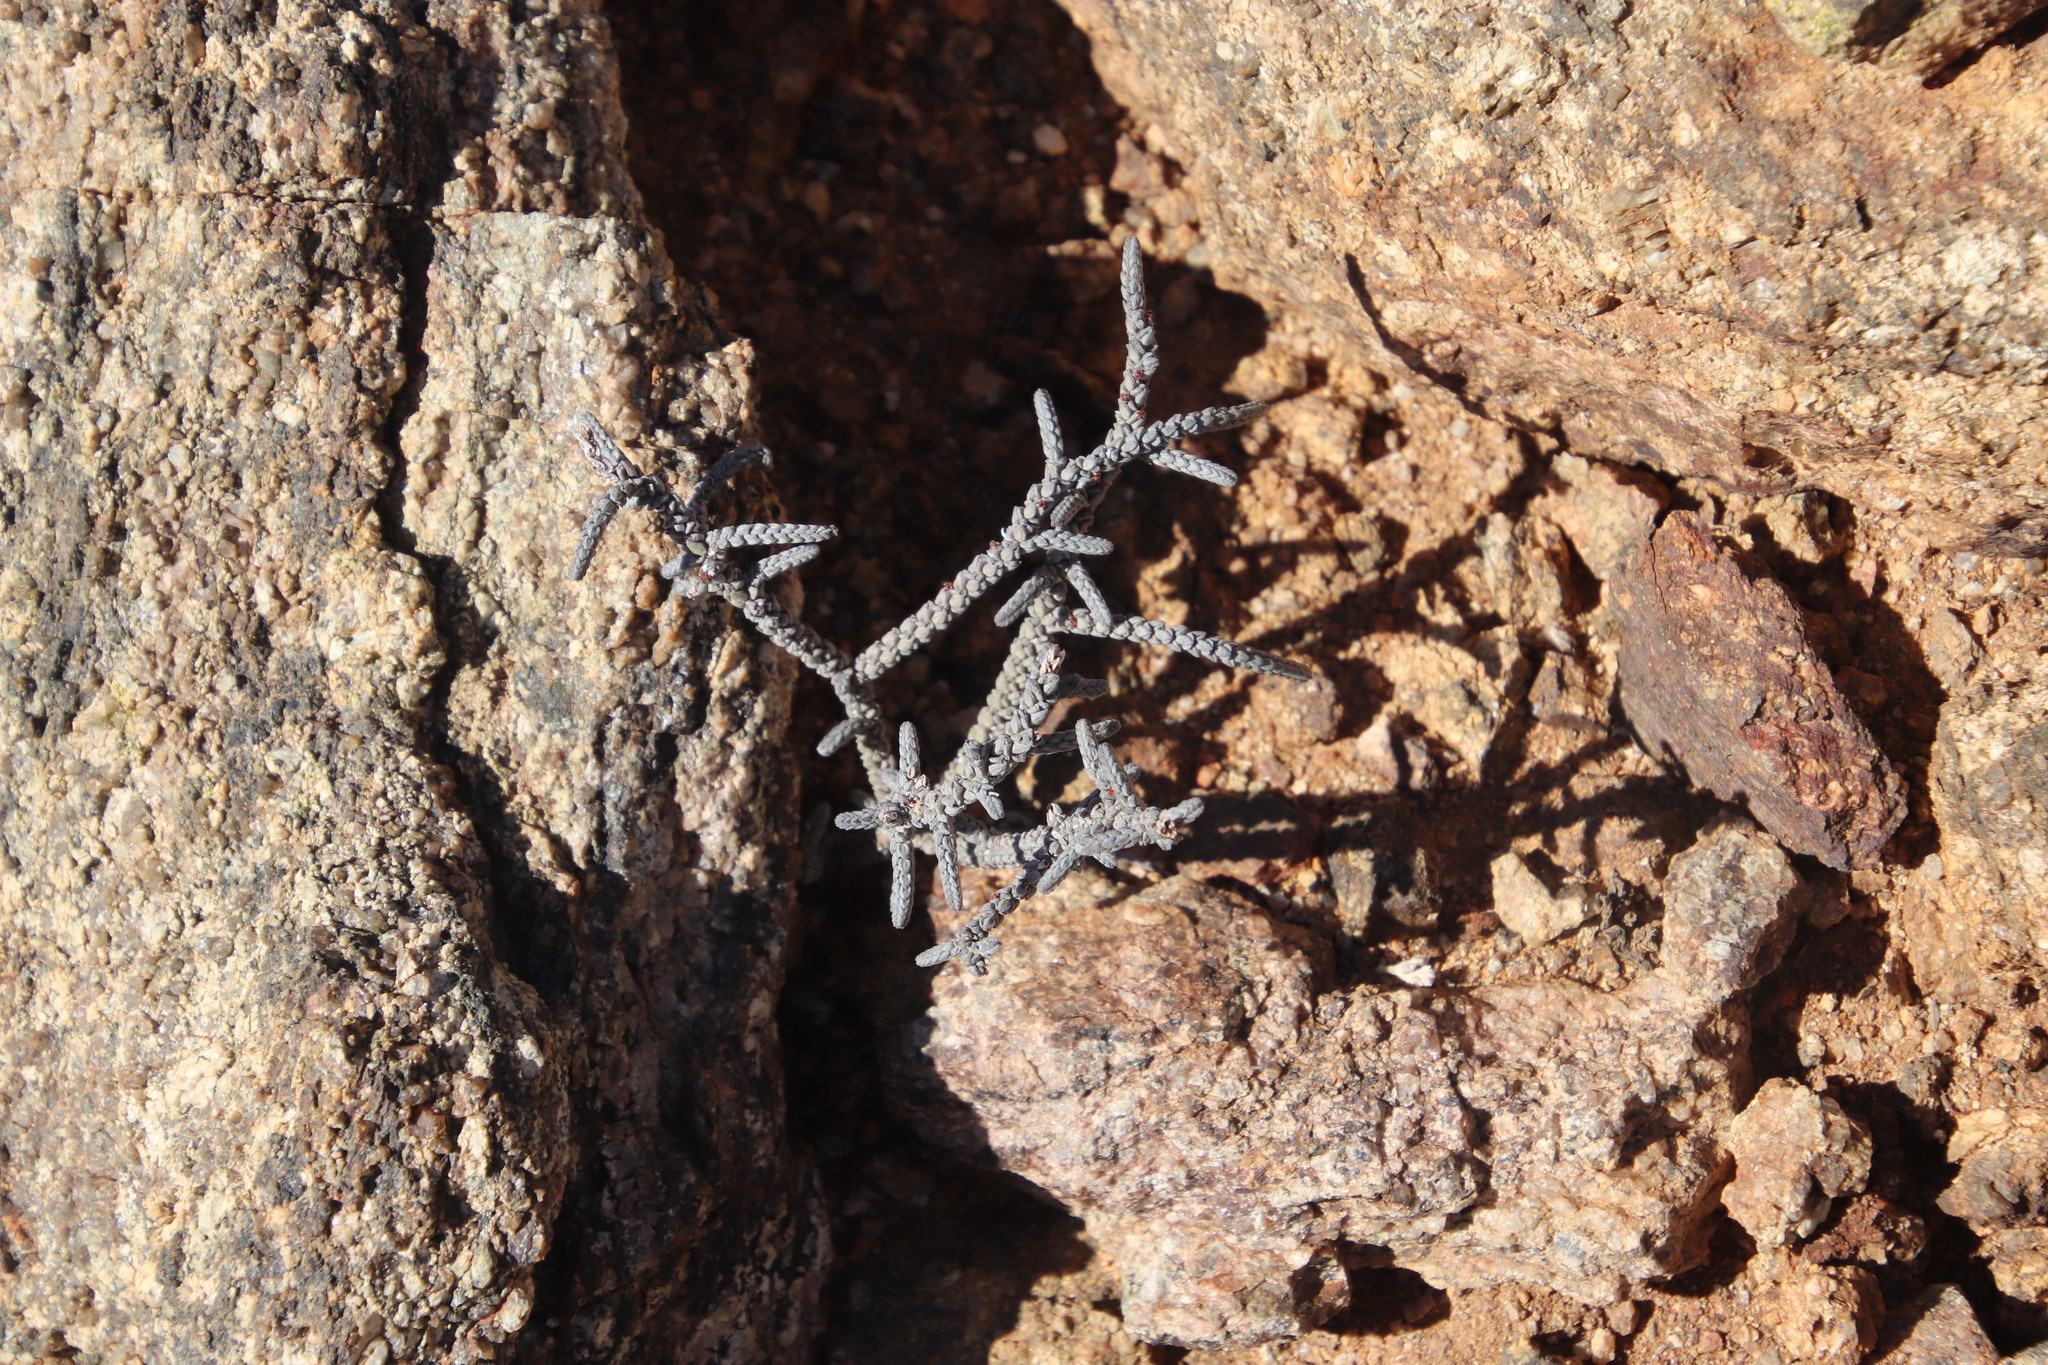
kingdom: Plantae
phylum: Tracheophyta
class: Magnoliopsida
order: Saxifragales
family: Crassulaceae
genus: Crassula
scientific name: Crassula muscosa
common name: Toy-cypress
